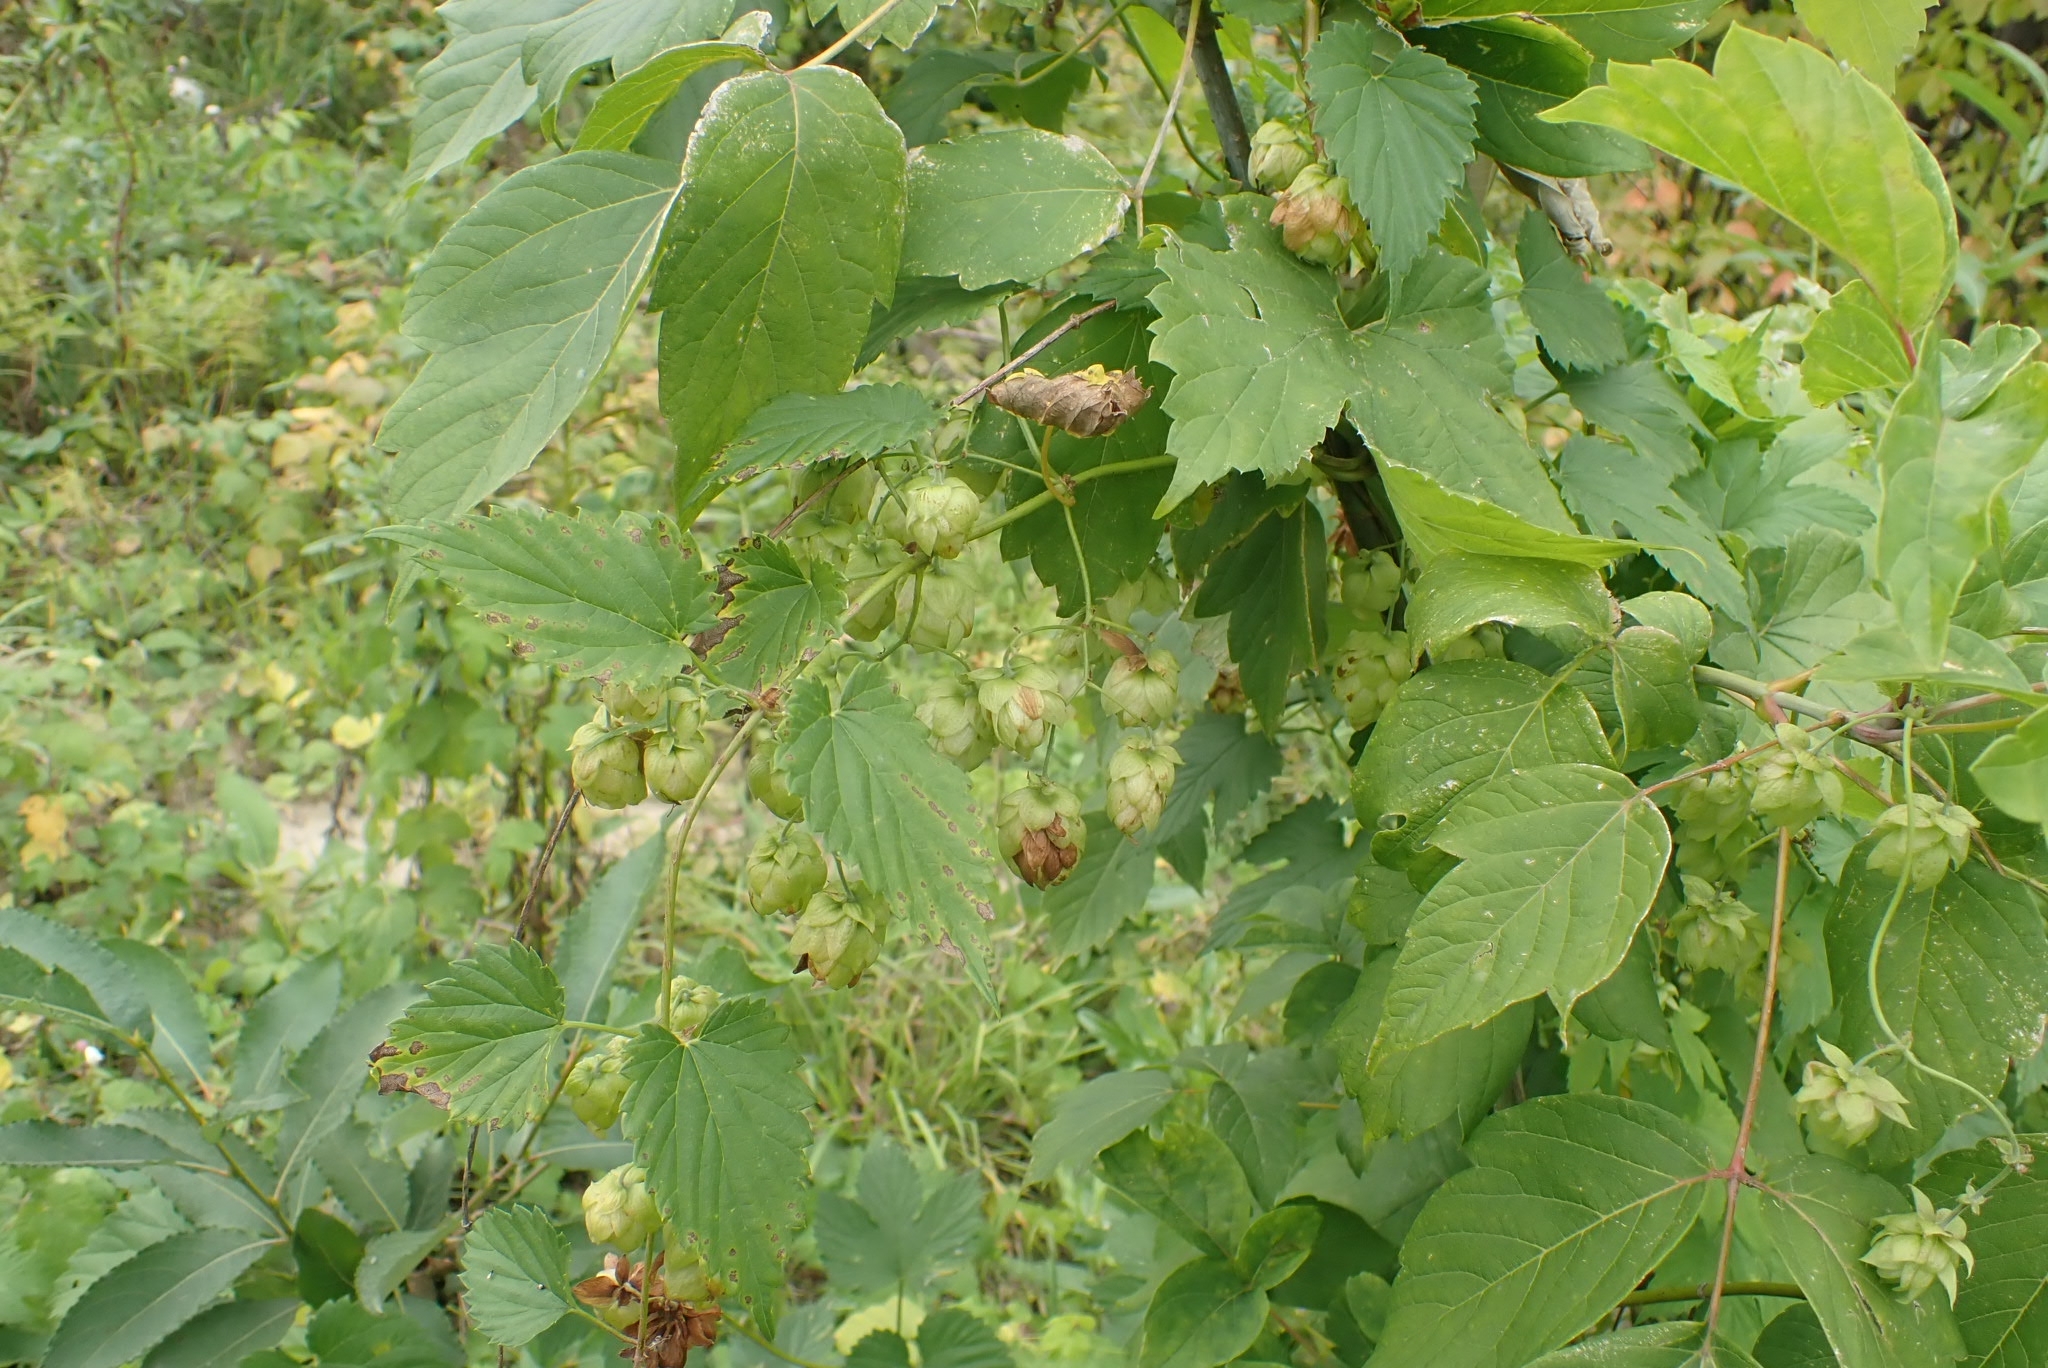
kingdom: Plantae
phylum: Tracheophyta
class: Magnoliopsida
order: Rosales
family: Cannabaceae
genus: Humulus
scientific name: Humulus lupulus
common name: Hop
